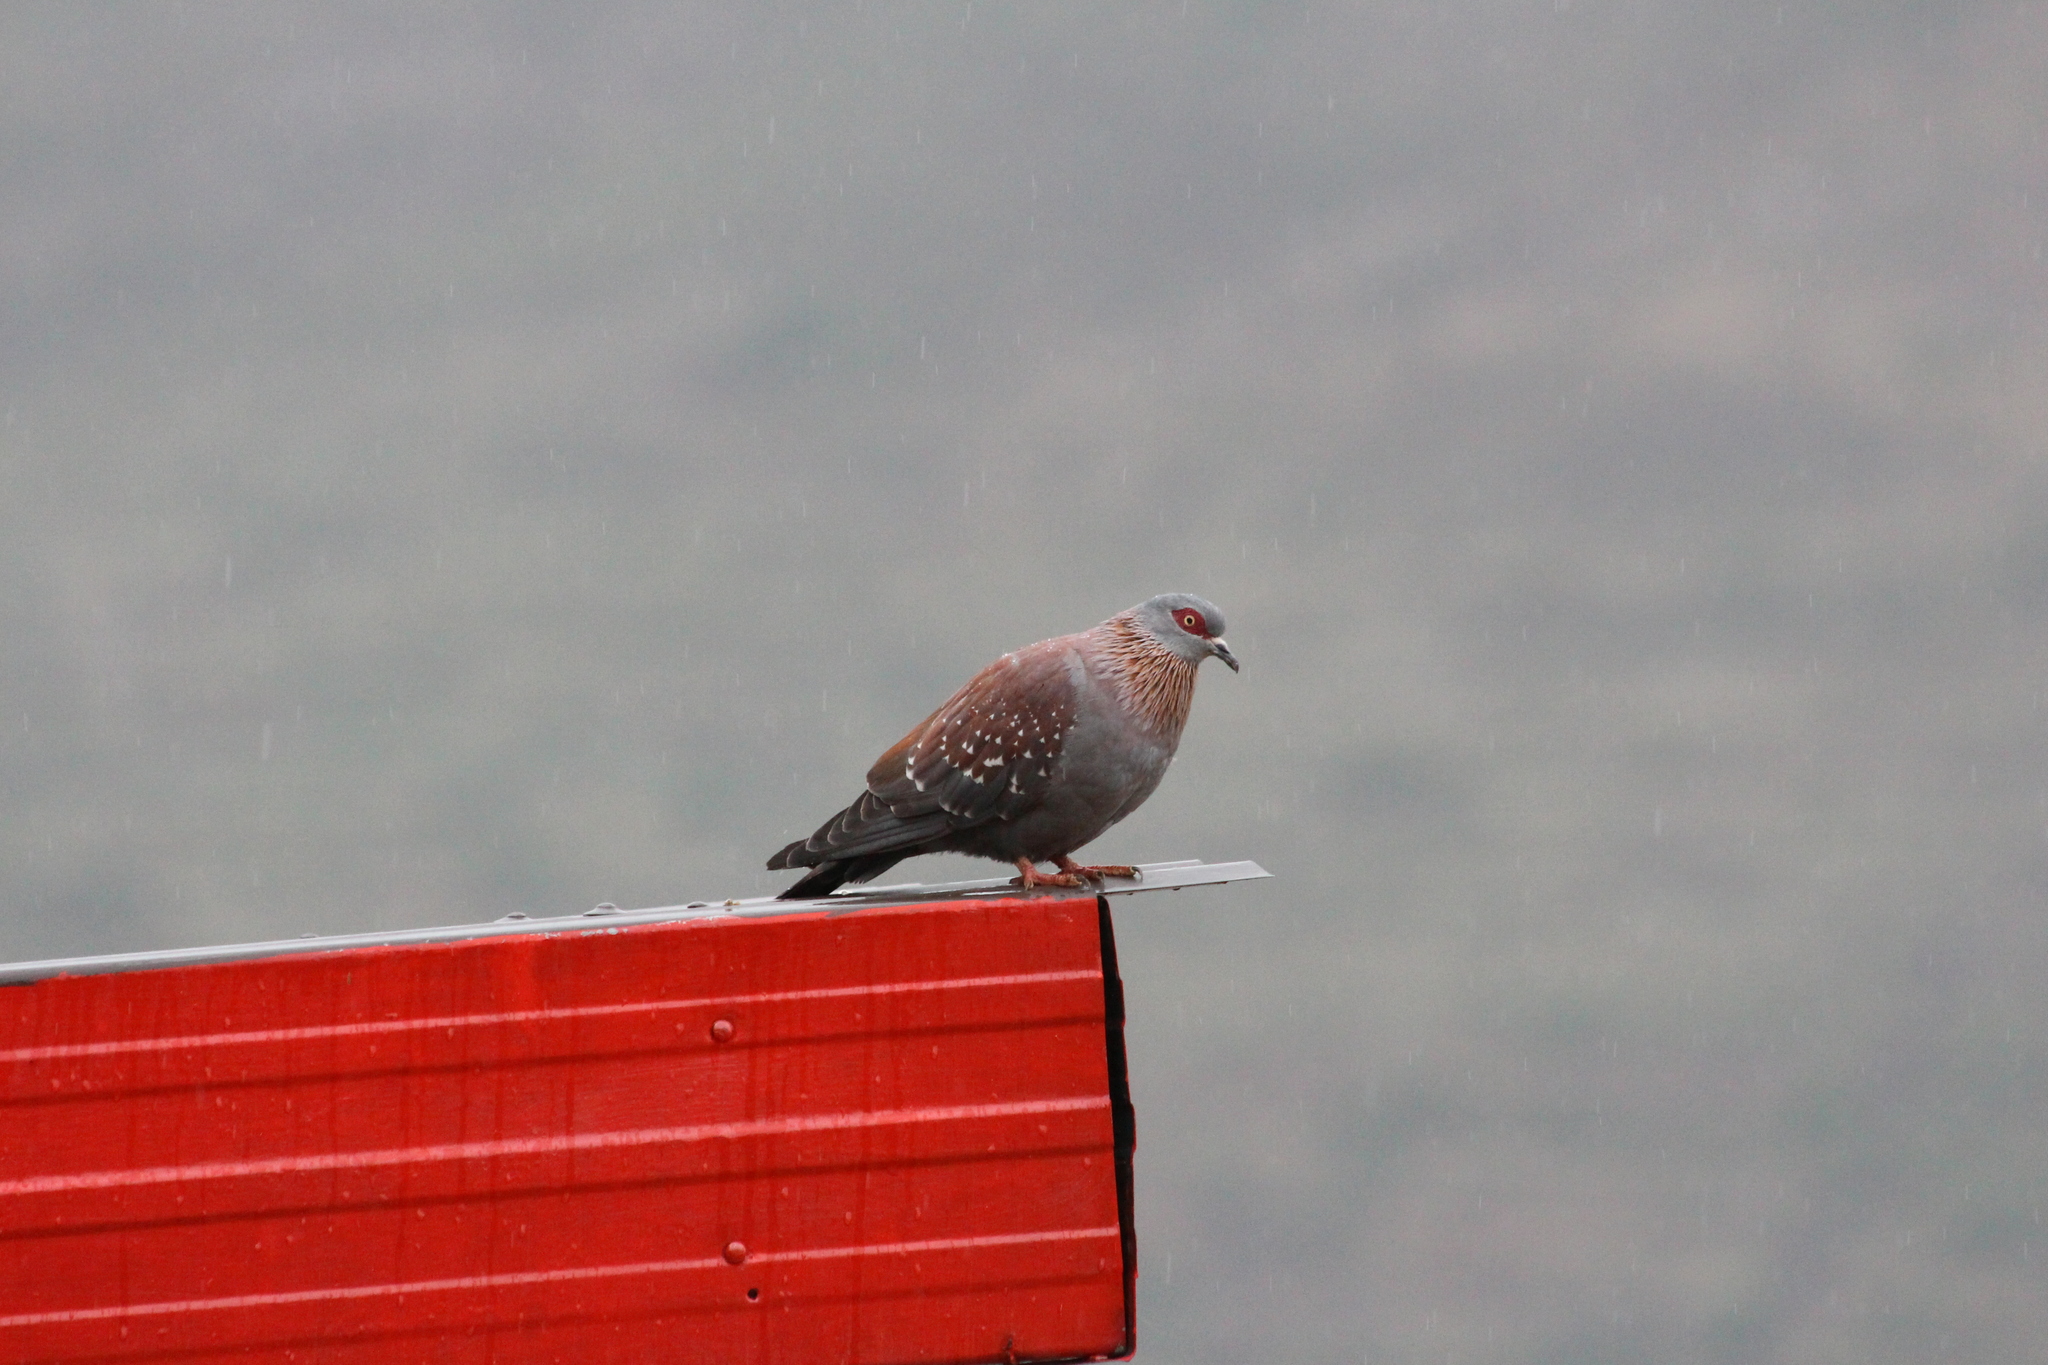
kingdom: Animalia
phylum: Chordata
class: Aves
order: Columbiformes
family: Columbidae
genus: Columba
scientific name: Columba guinea
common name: Speckled pigeon
